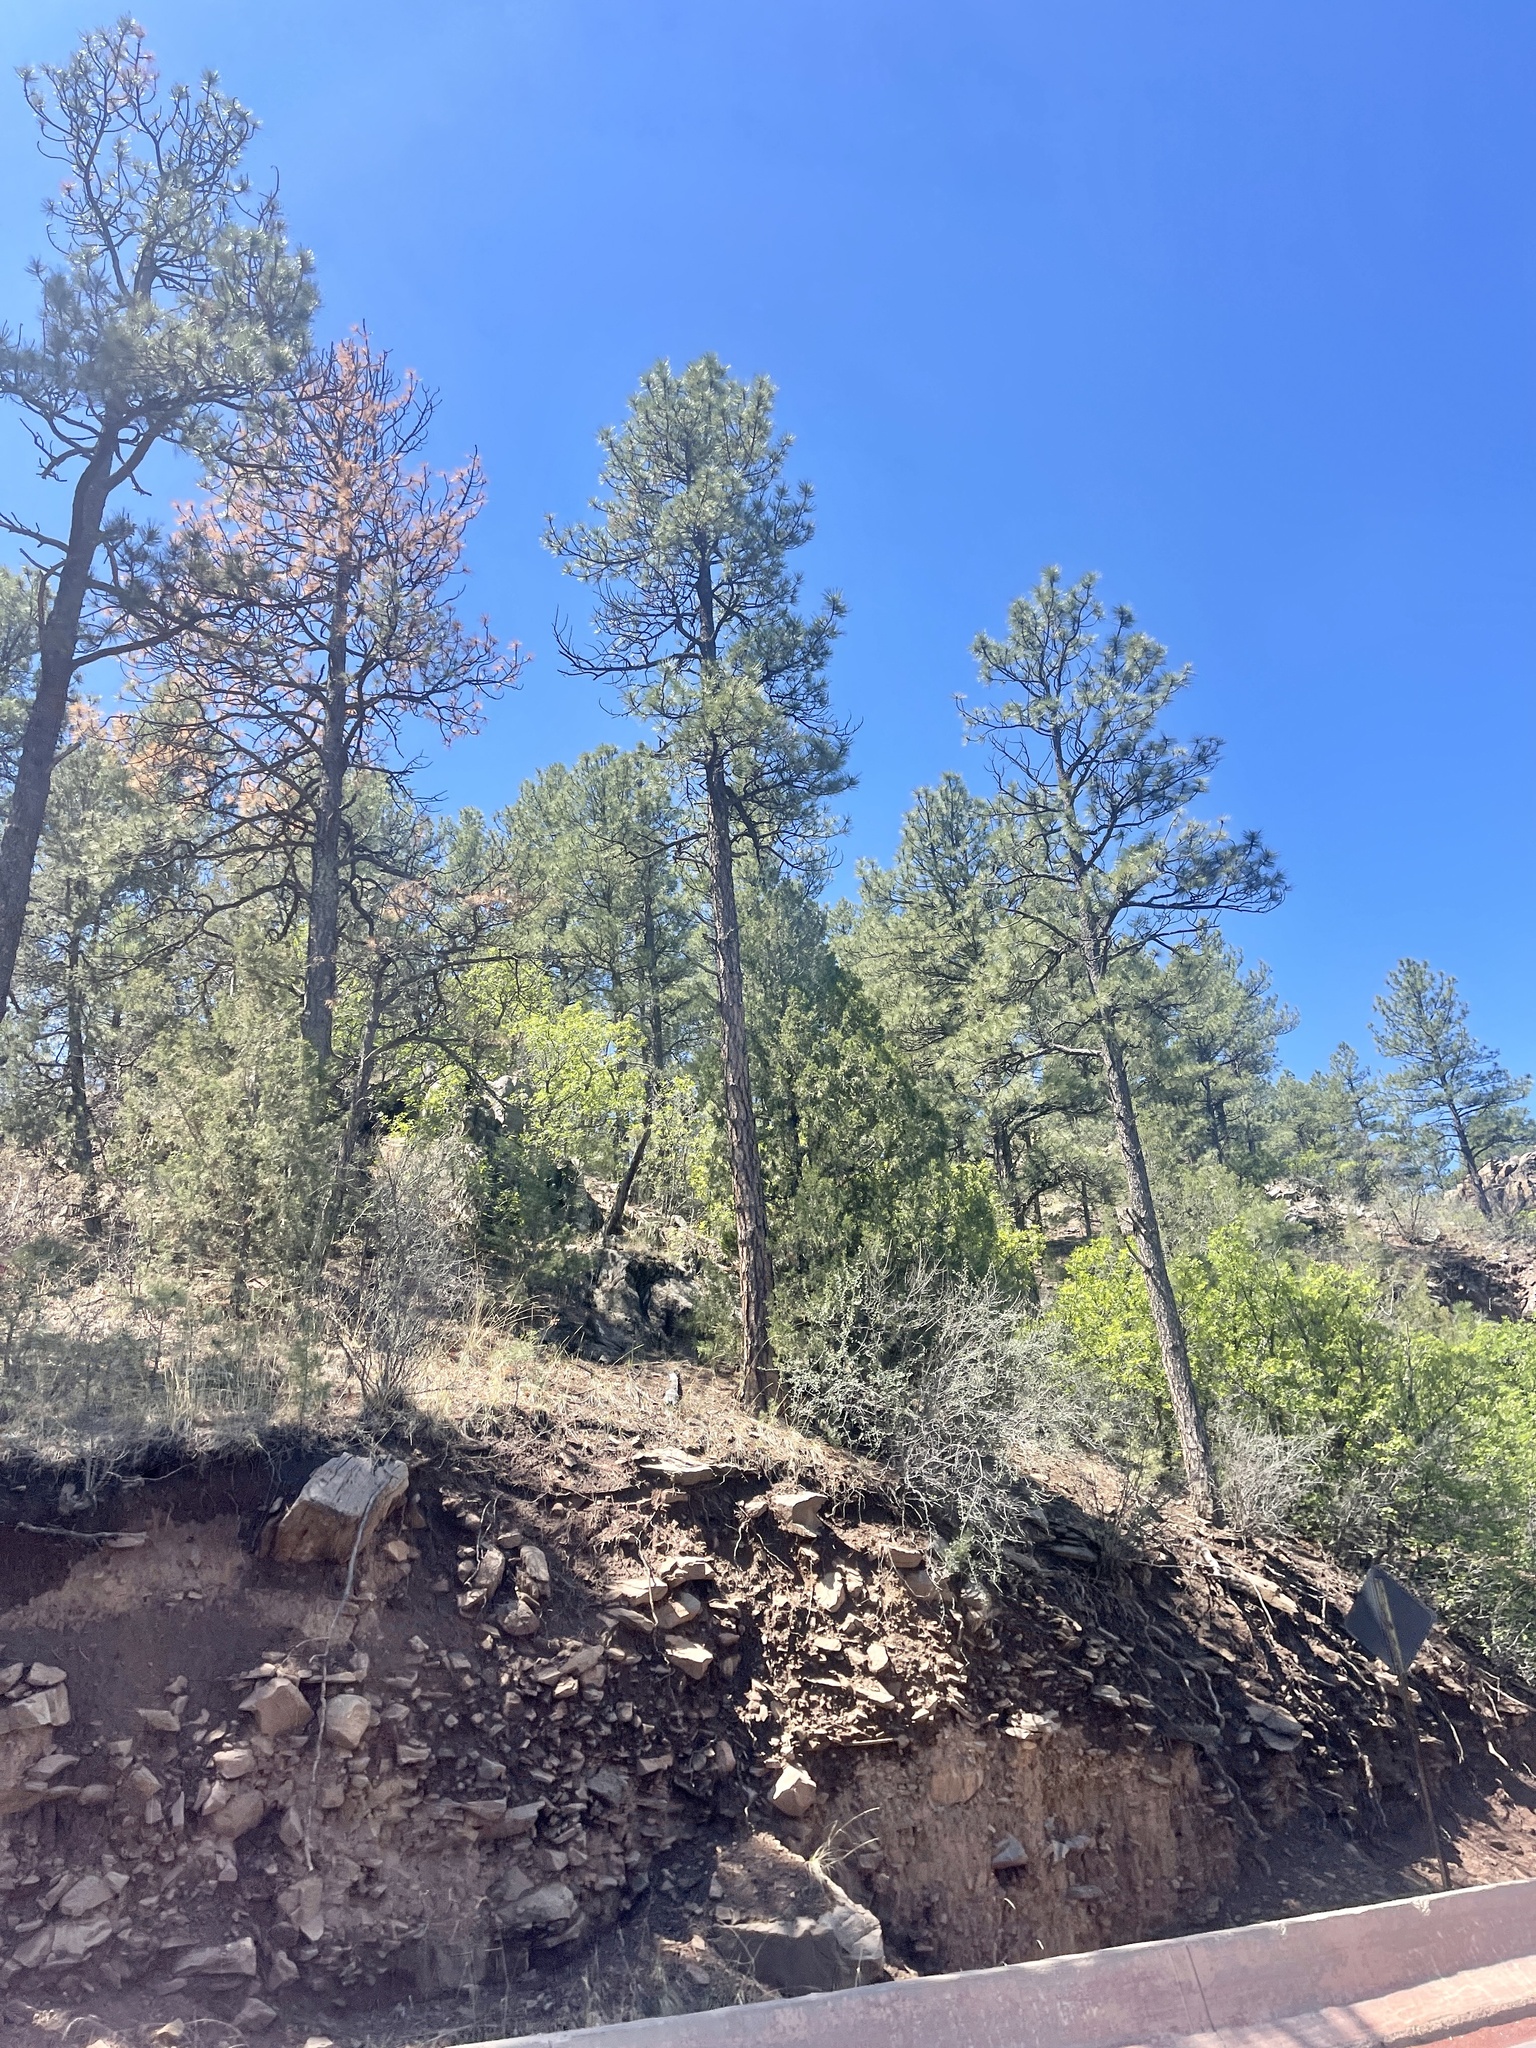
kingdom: Plantae
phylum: Tracheophyta
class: Pinopsida
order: Pinales
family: Pinaceae
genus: Pinus
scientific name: Pinus ponderosa
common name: Western yellow-pine
